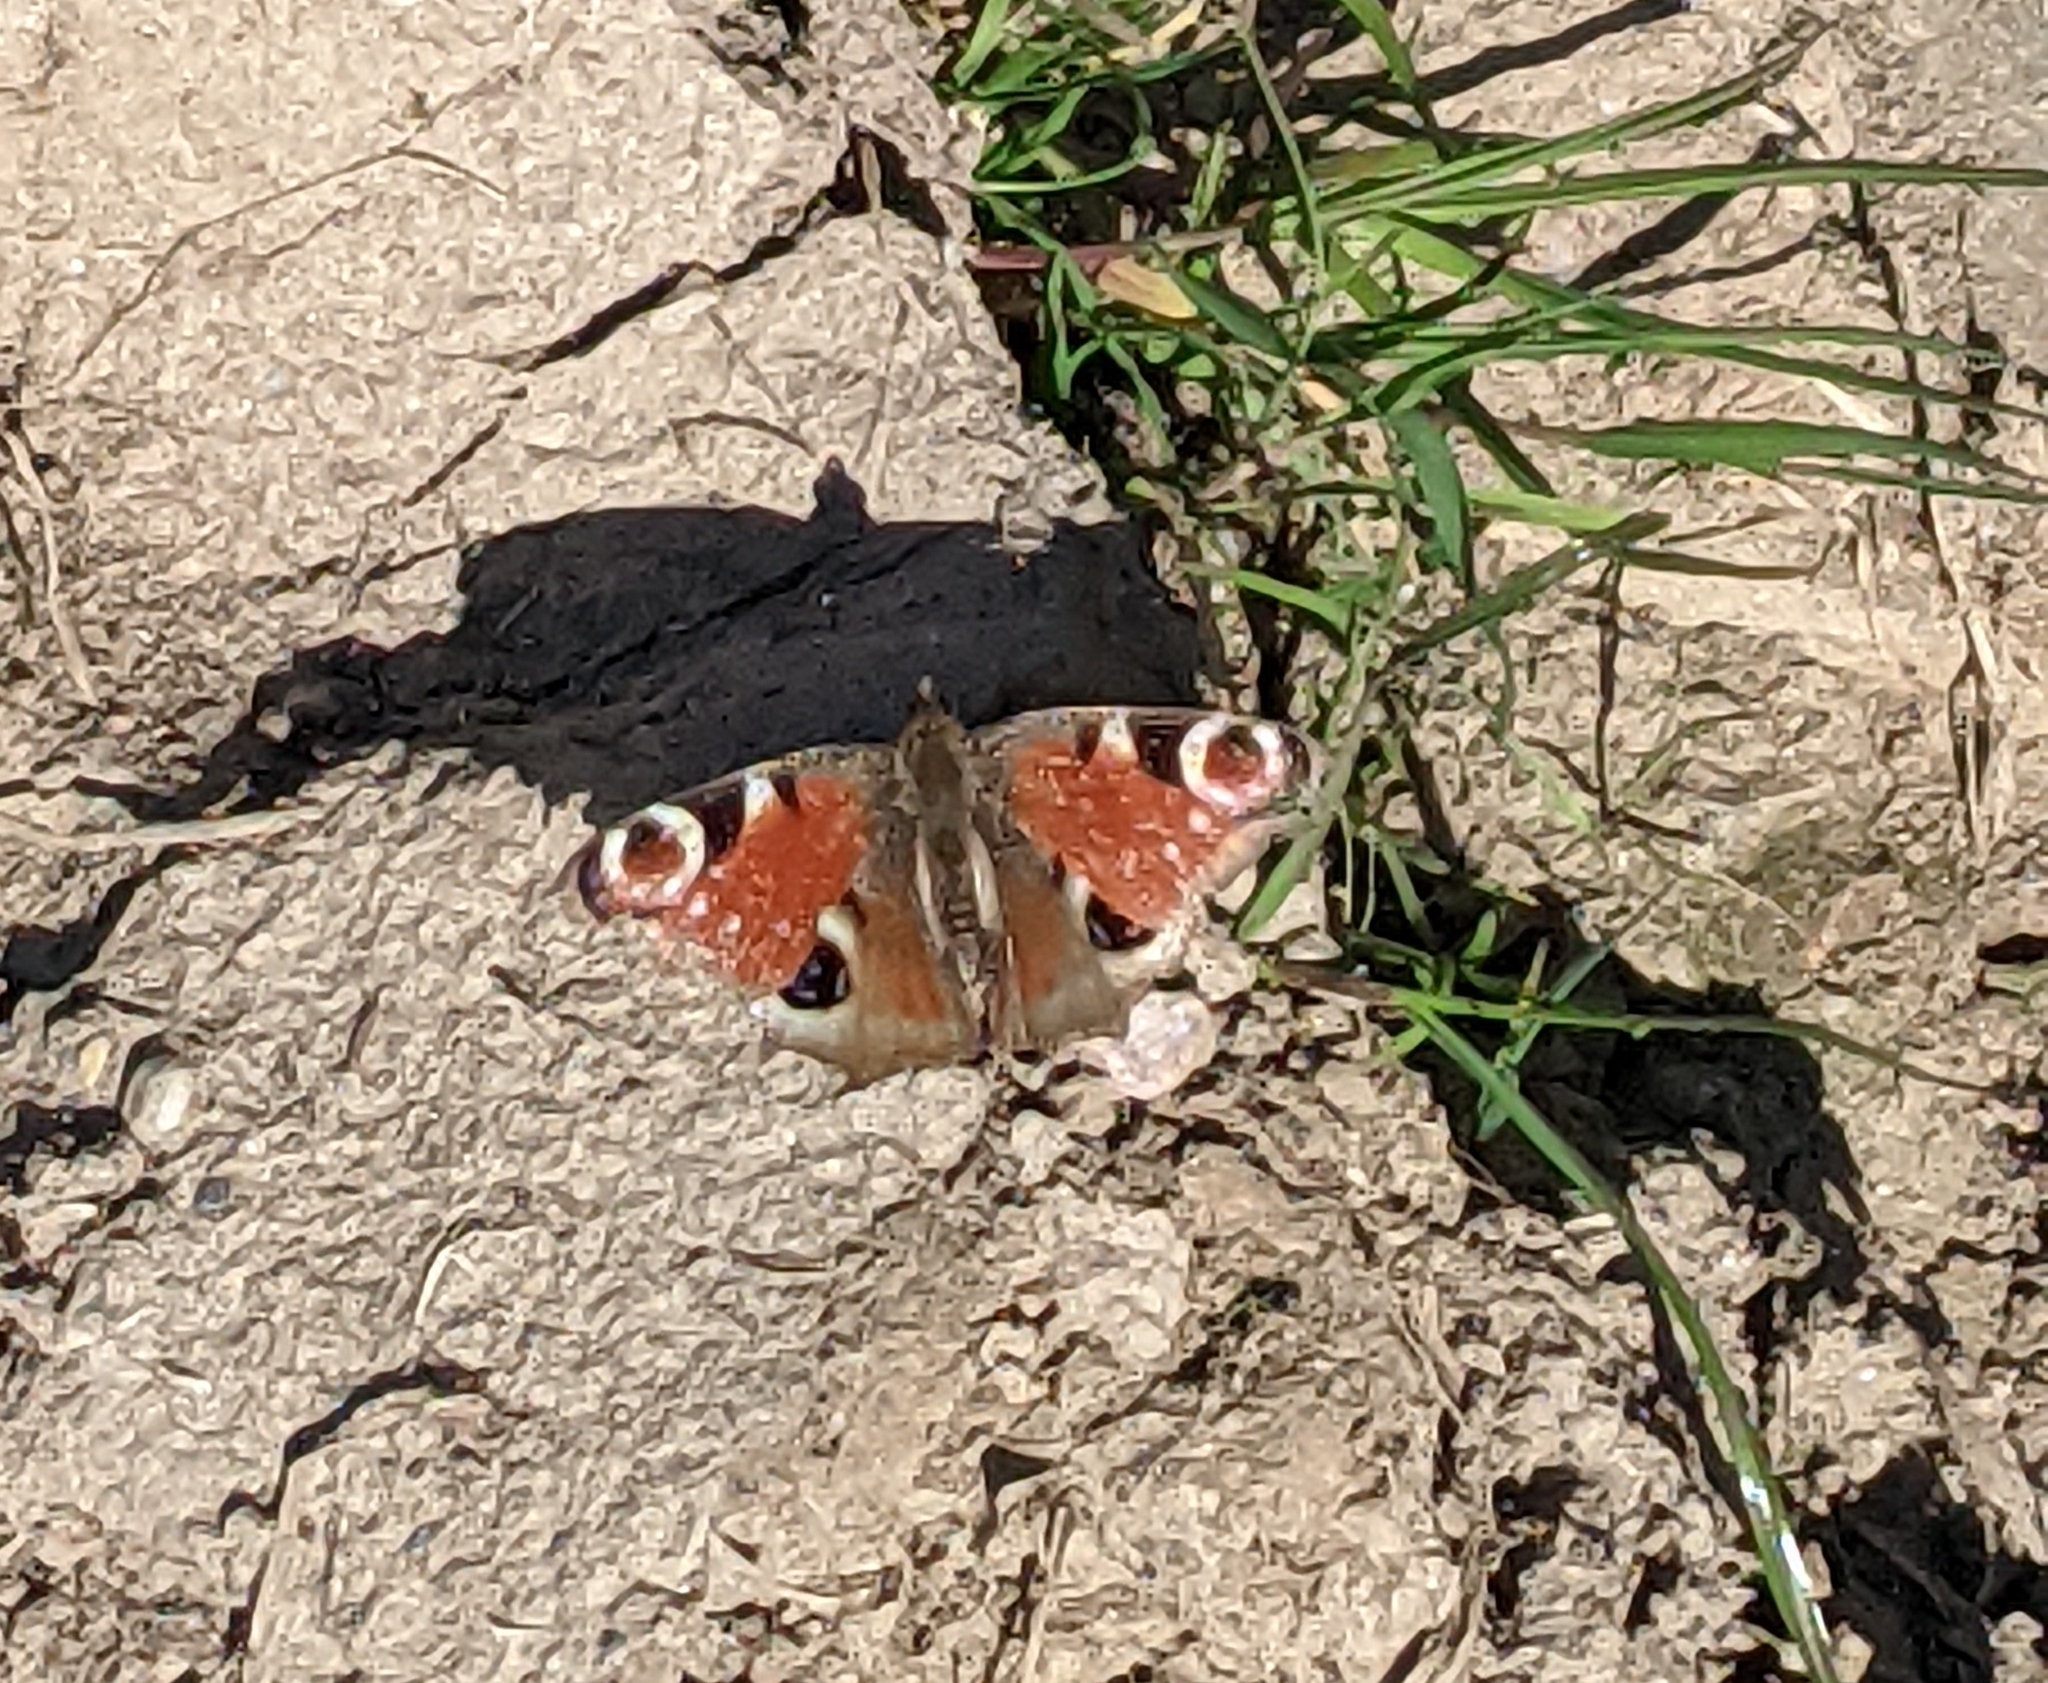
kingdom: Animalia
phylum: Arthropoda
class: Insecta
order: Lepidoptera
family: Nymphalidae
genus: Aglais
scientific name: Aglais io
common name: Peacock
